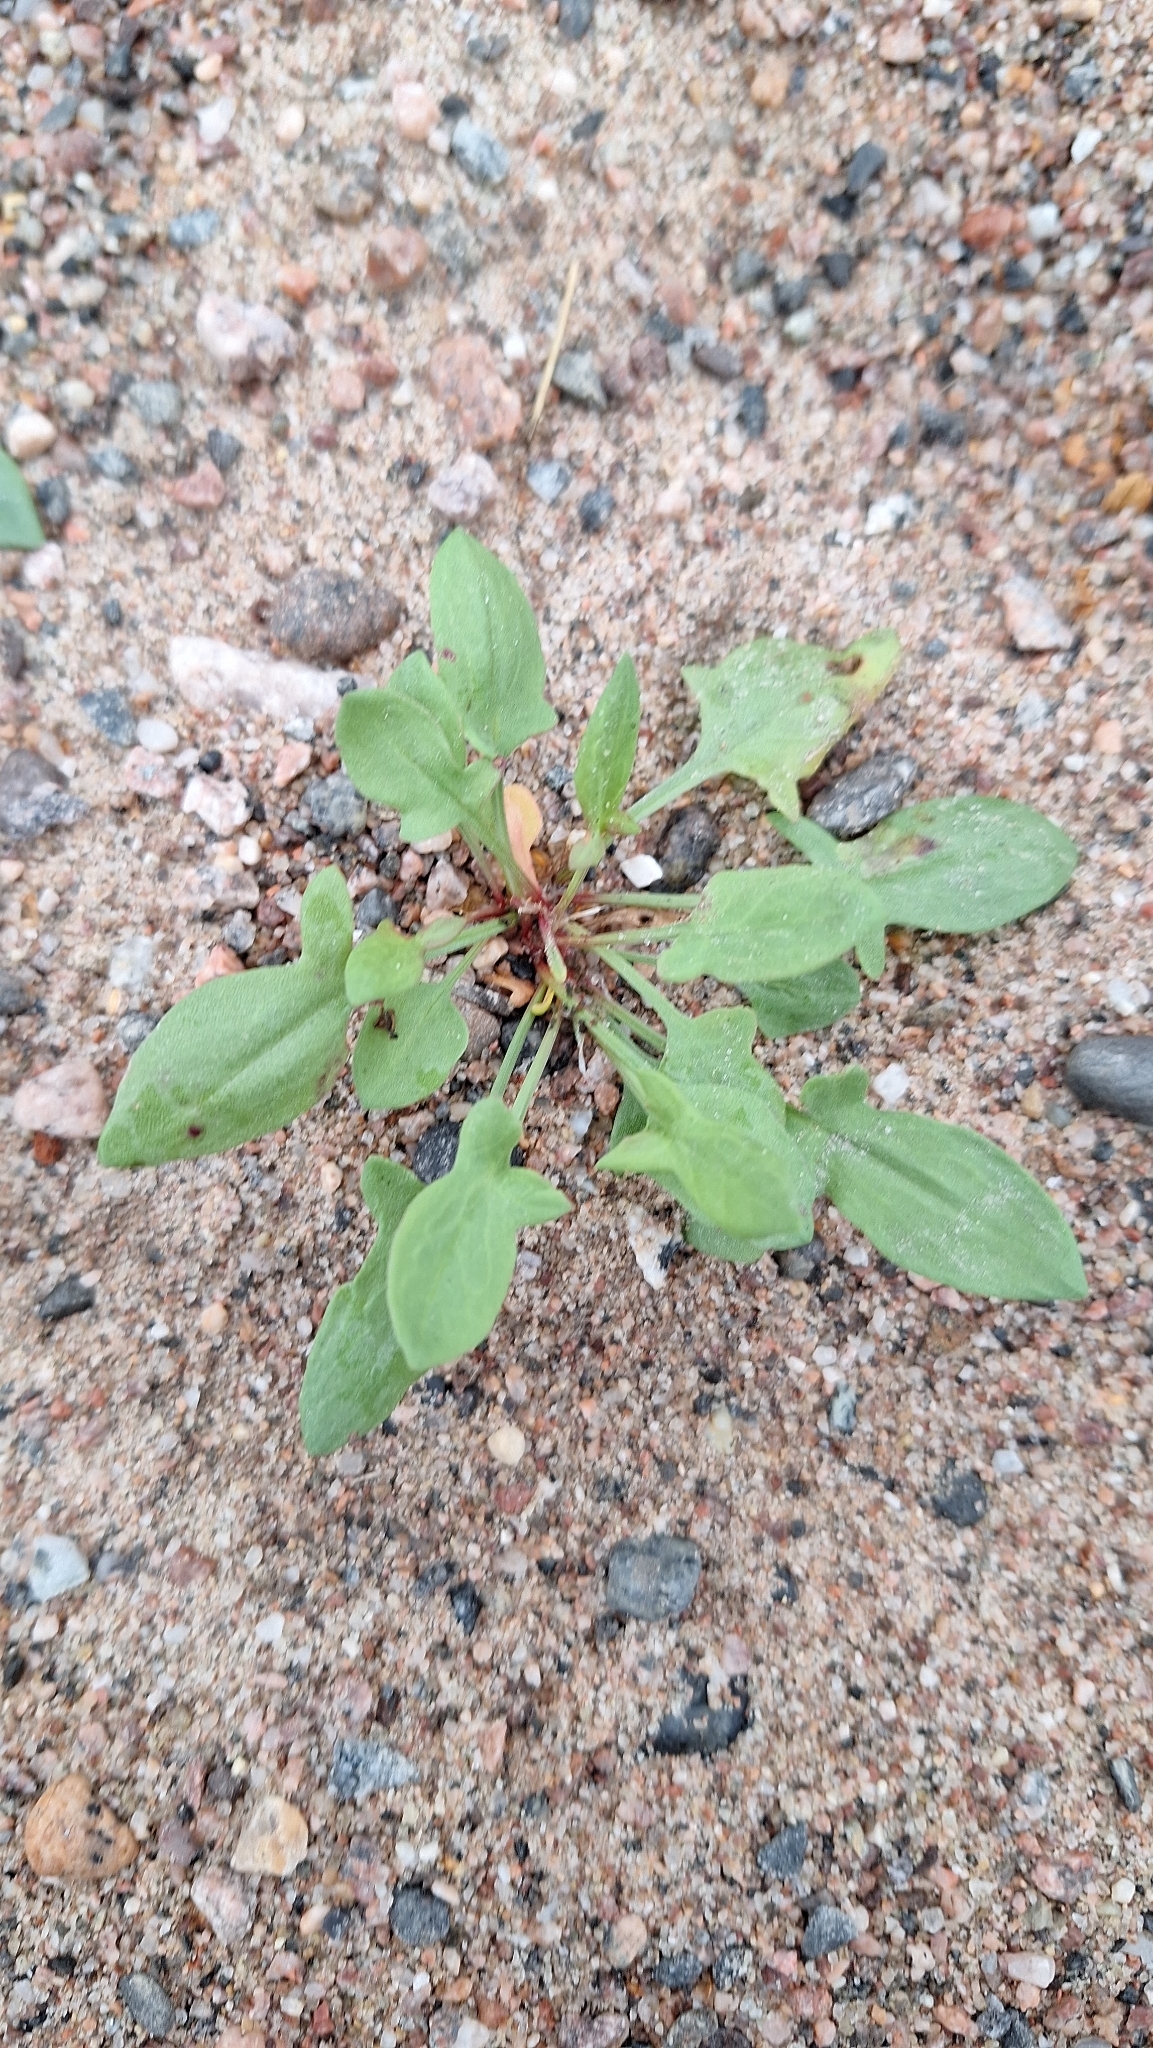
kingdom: Plantae
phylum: Tracheophyta
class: Magnoliopsida
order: Caryophyllales
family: Polygonaceae
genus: Rumex
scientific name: Rumex acetosella
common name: Common sheep sorrel
